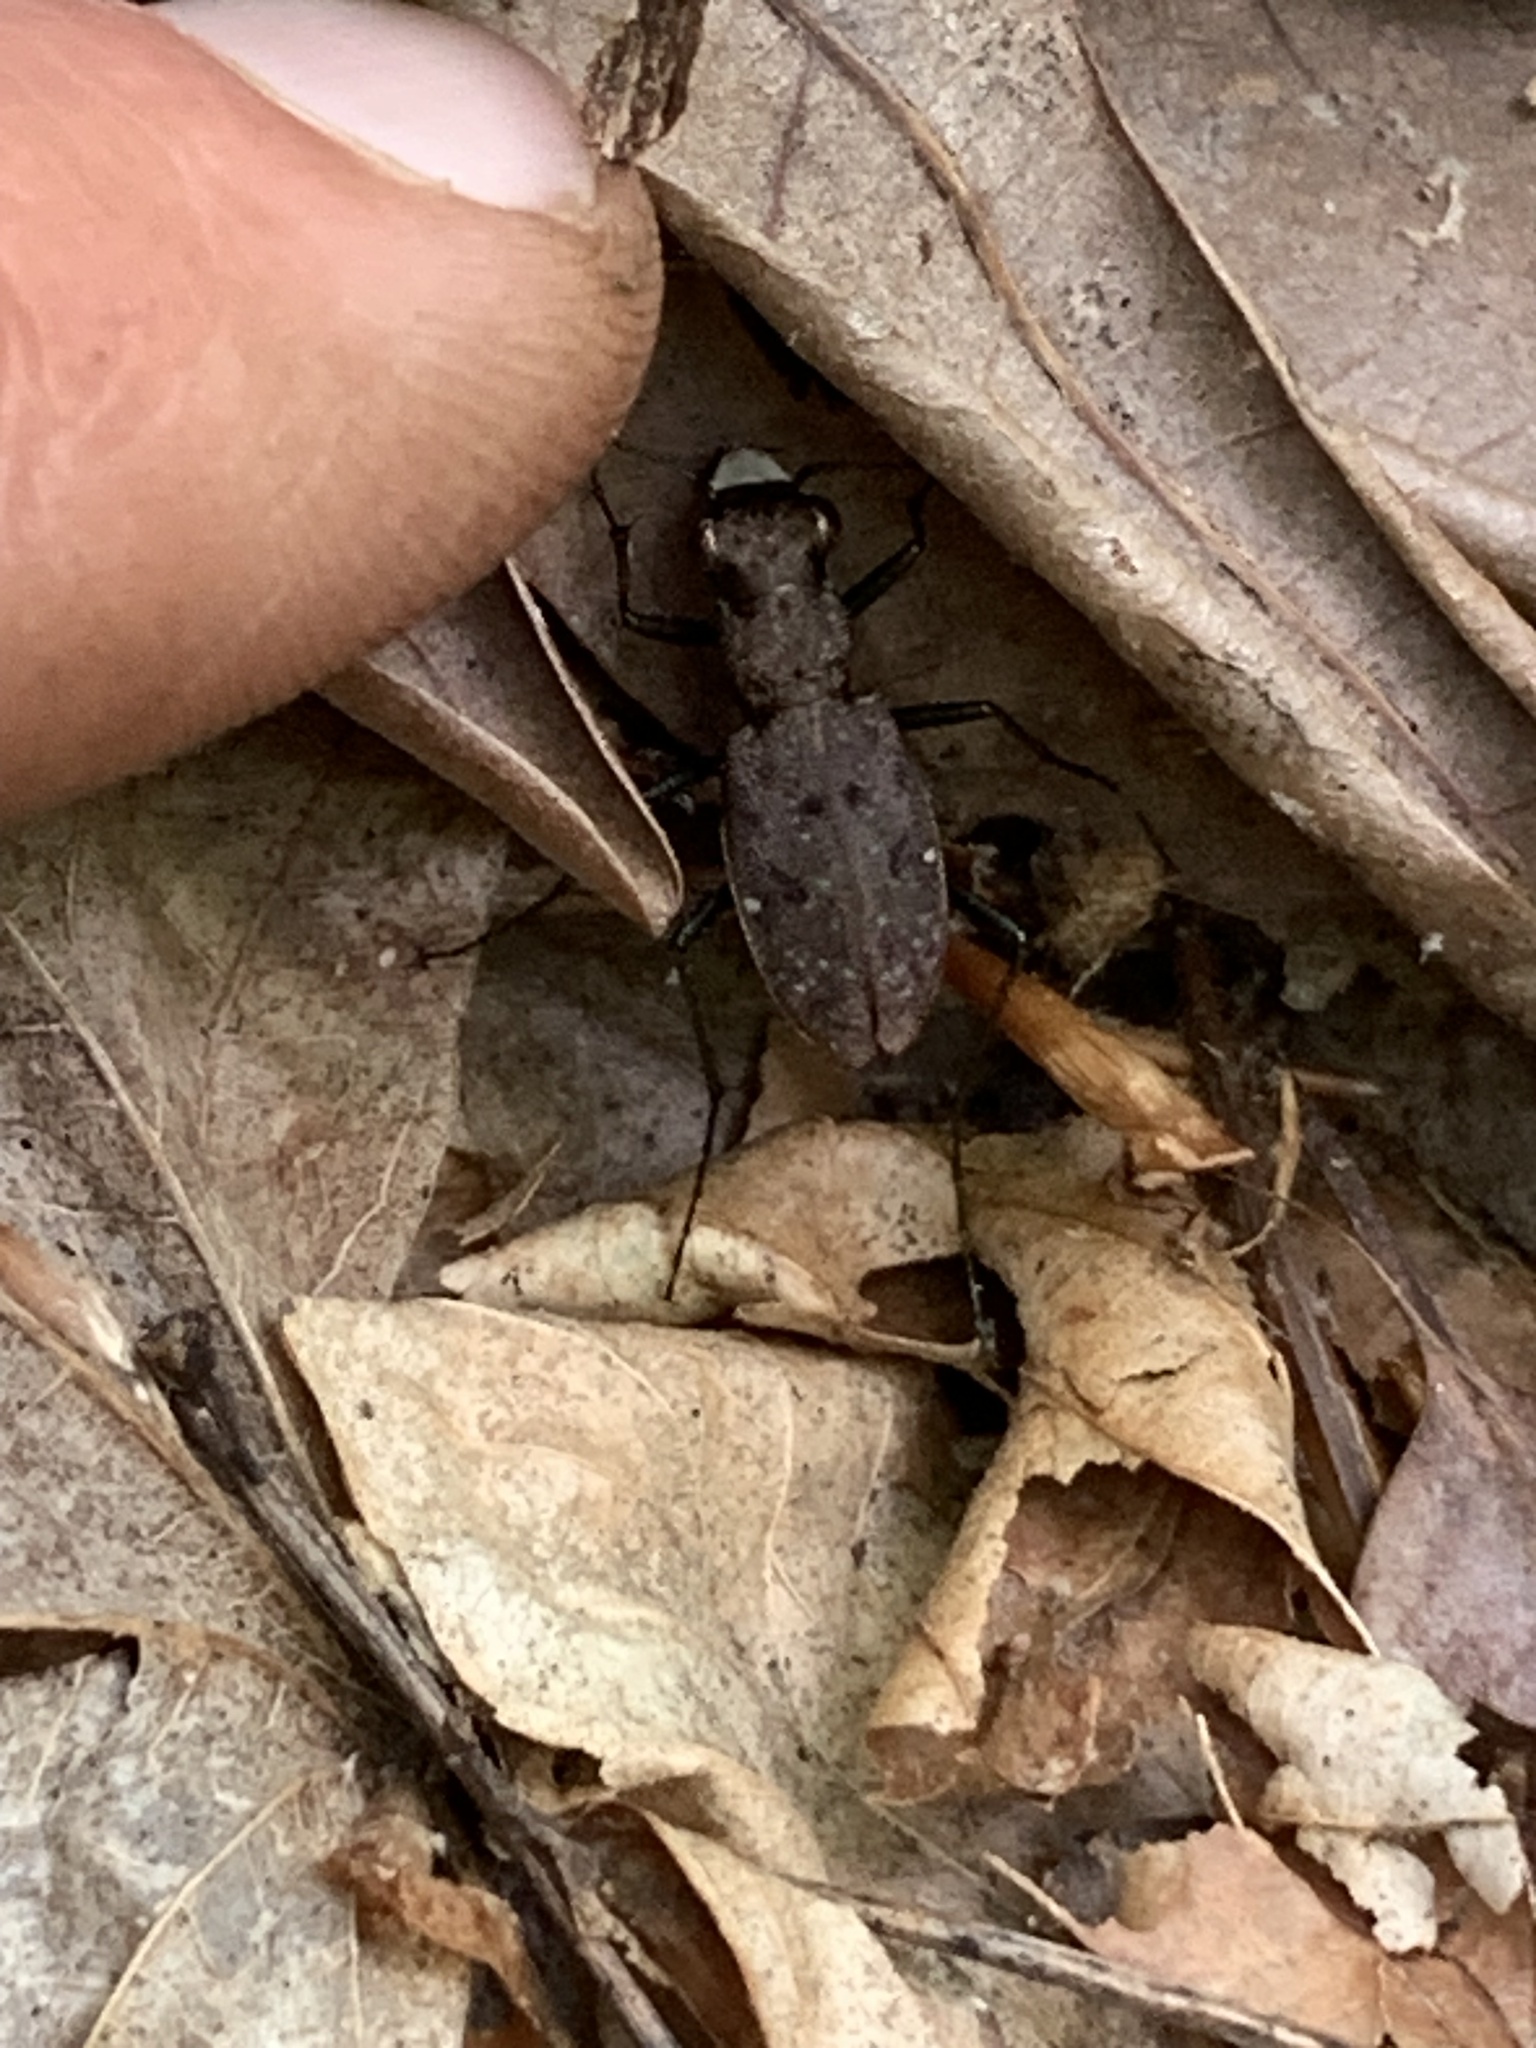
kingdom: Animalia
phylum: Arthropoda
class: Insecta
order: Coleoptera
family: Carabidae
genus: Cylindera
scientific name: Cylindera unipunctata
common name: One-spotted tiger beetle
